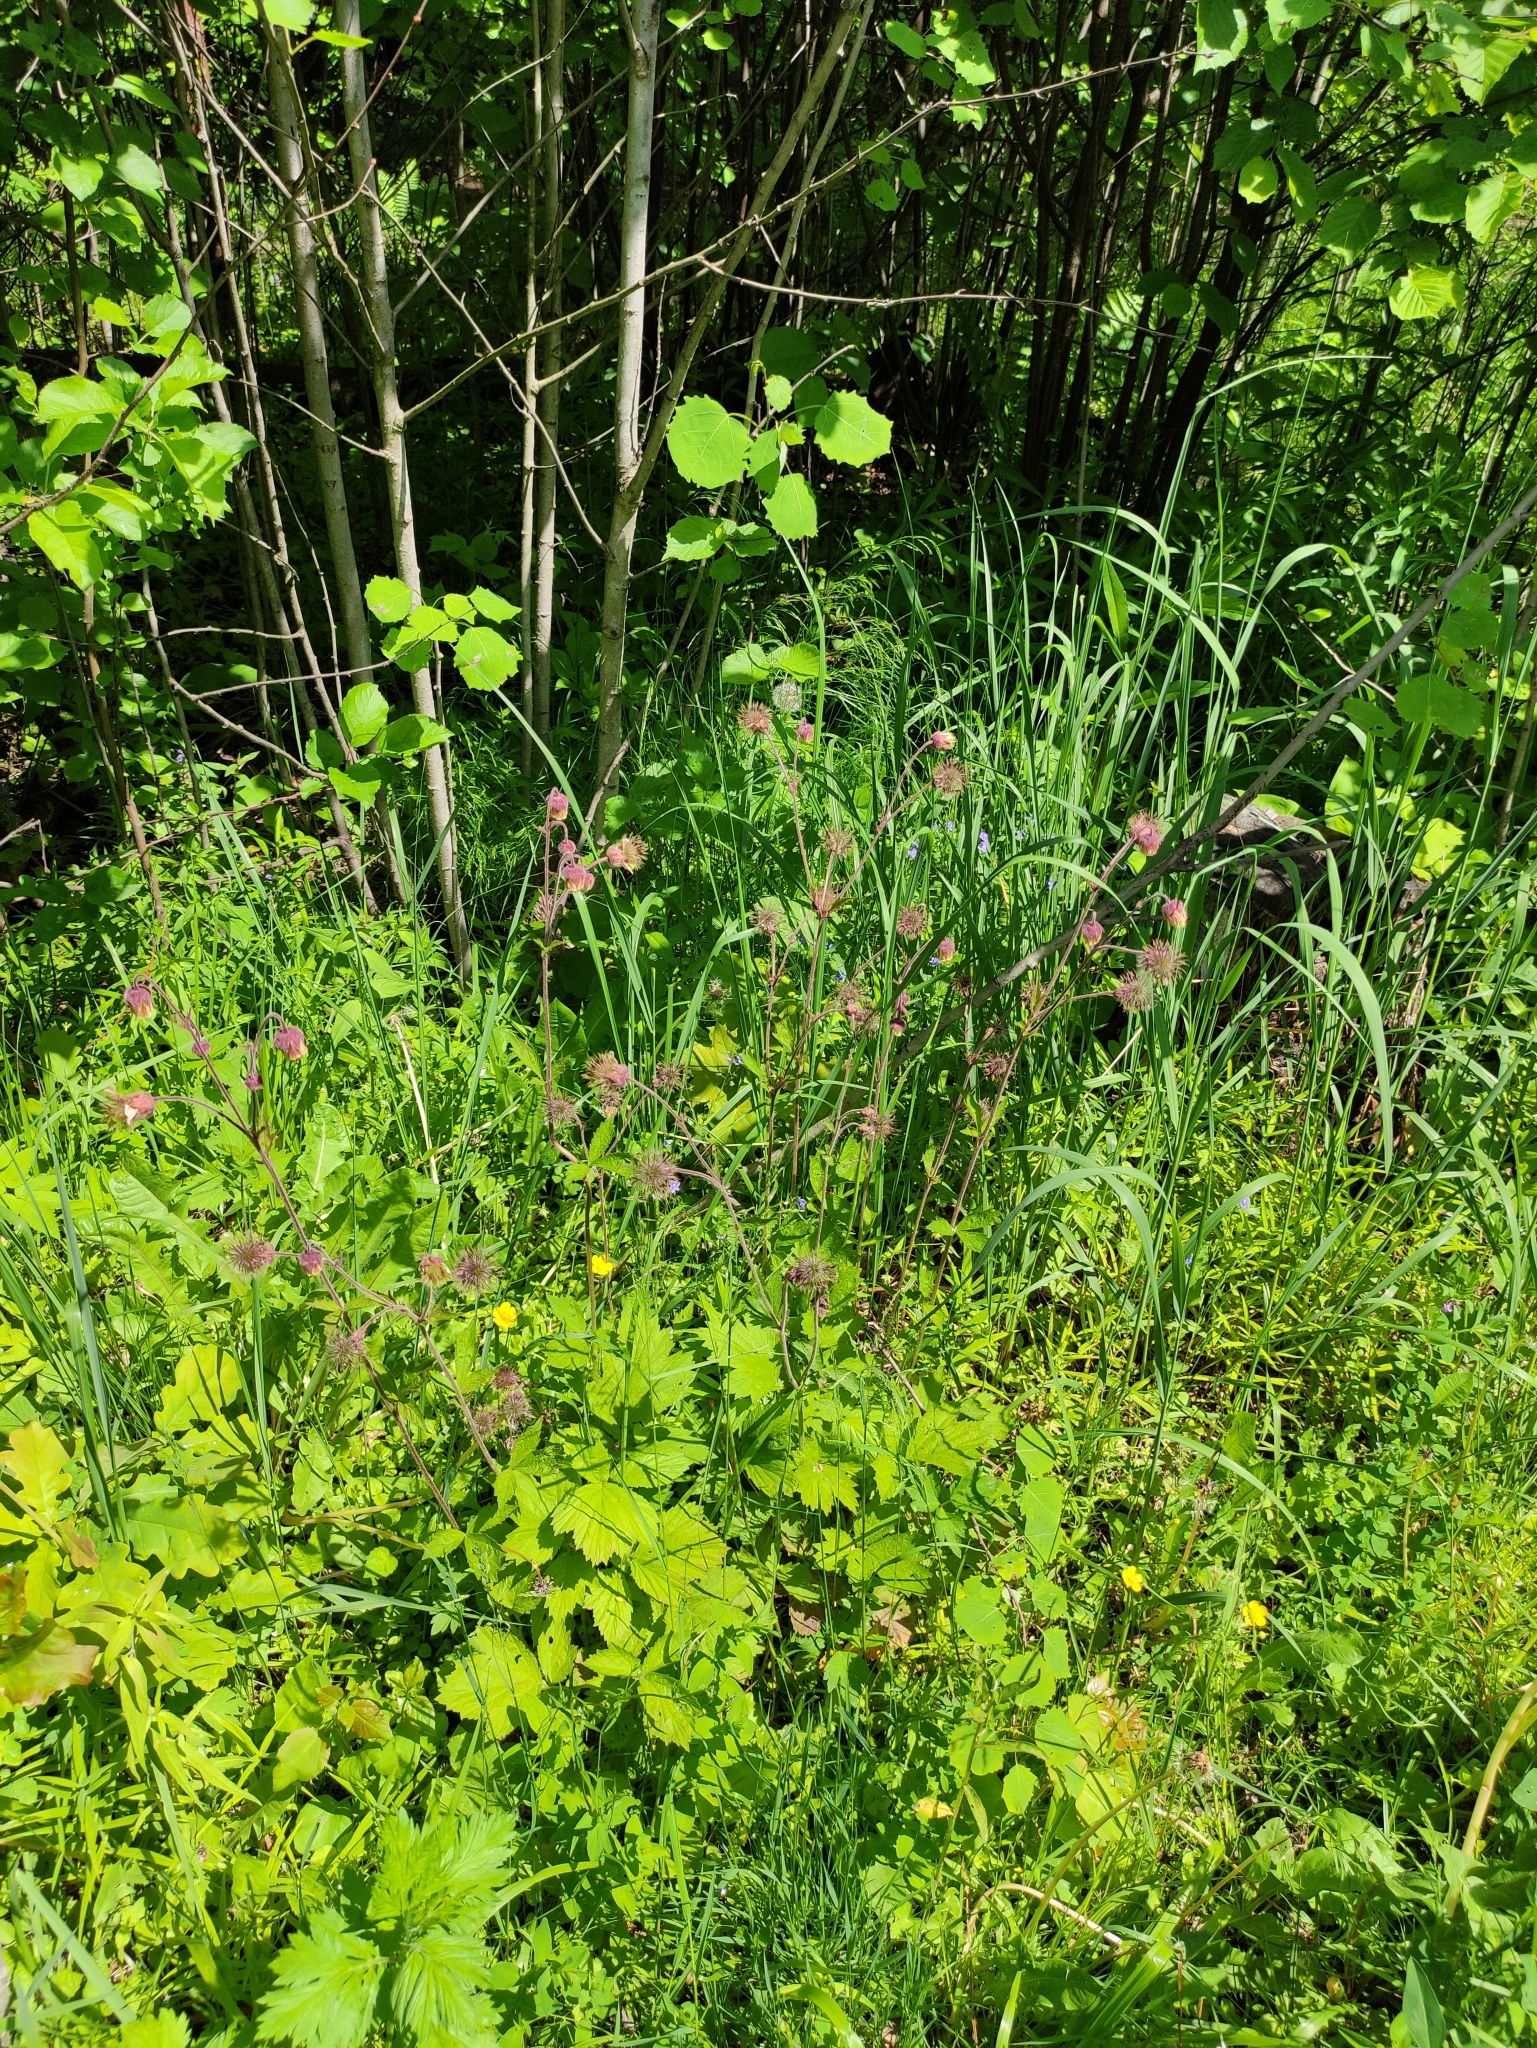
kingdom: Plantae
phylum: Tracheophyta
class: Magnoliopsida
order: Rosales
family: Rosaceae
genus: Geum
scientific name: Geum rivale
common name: Water avens
